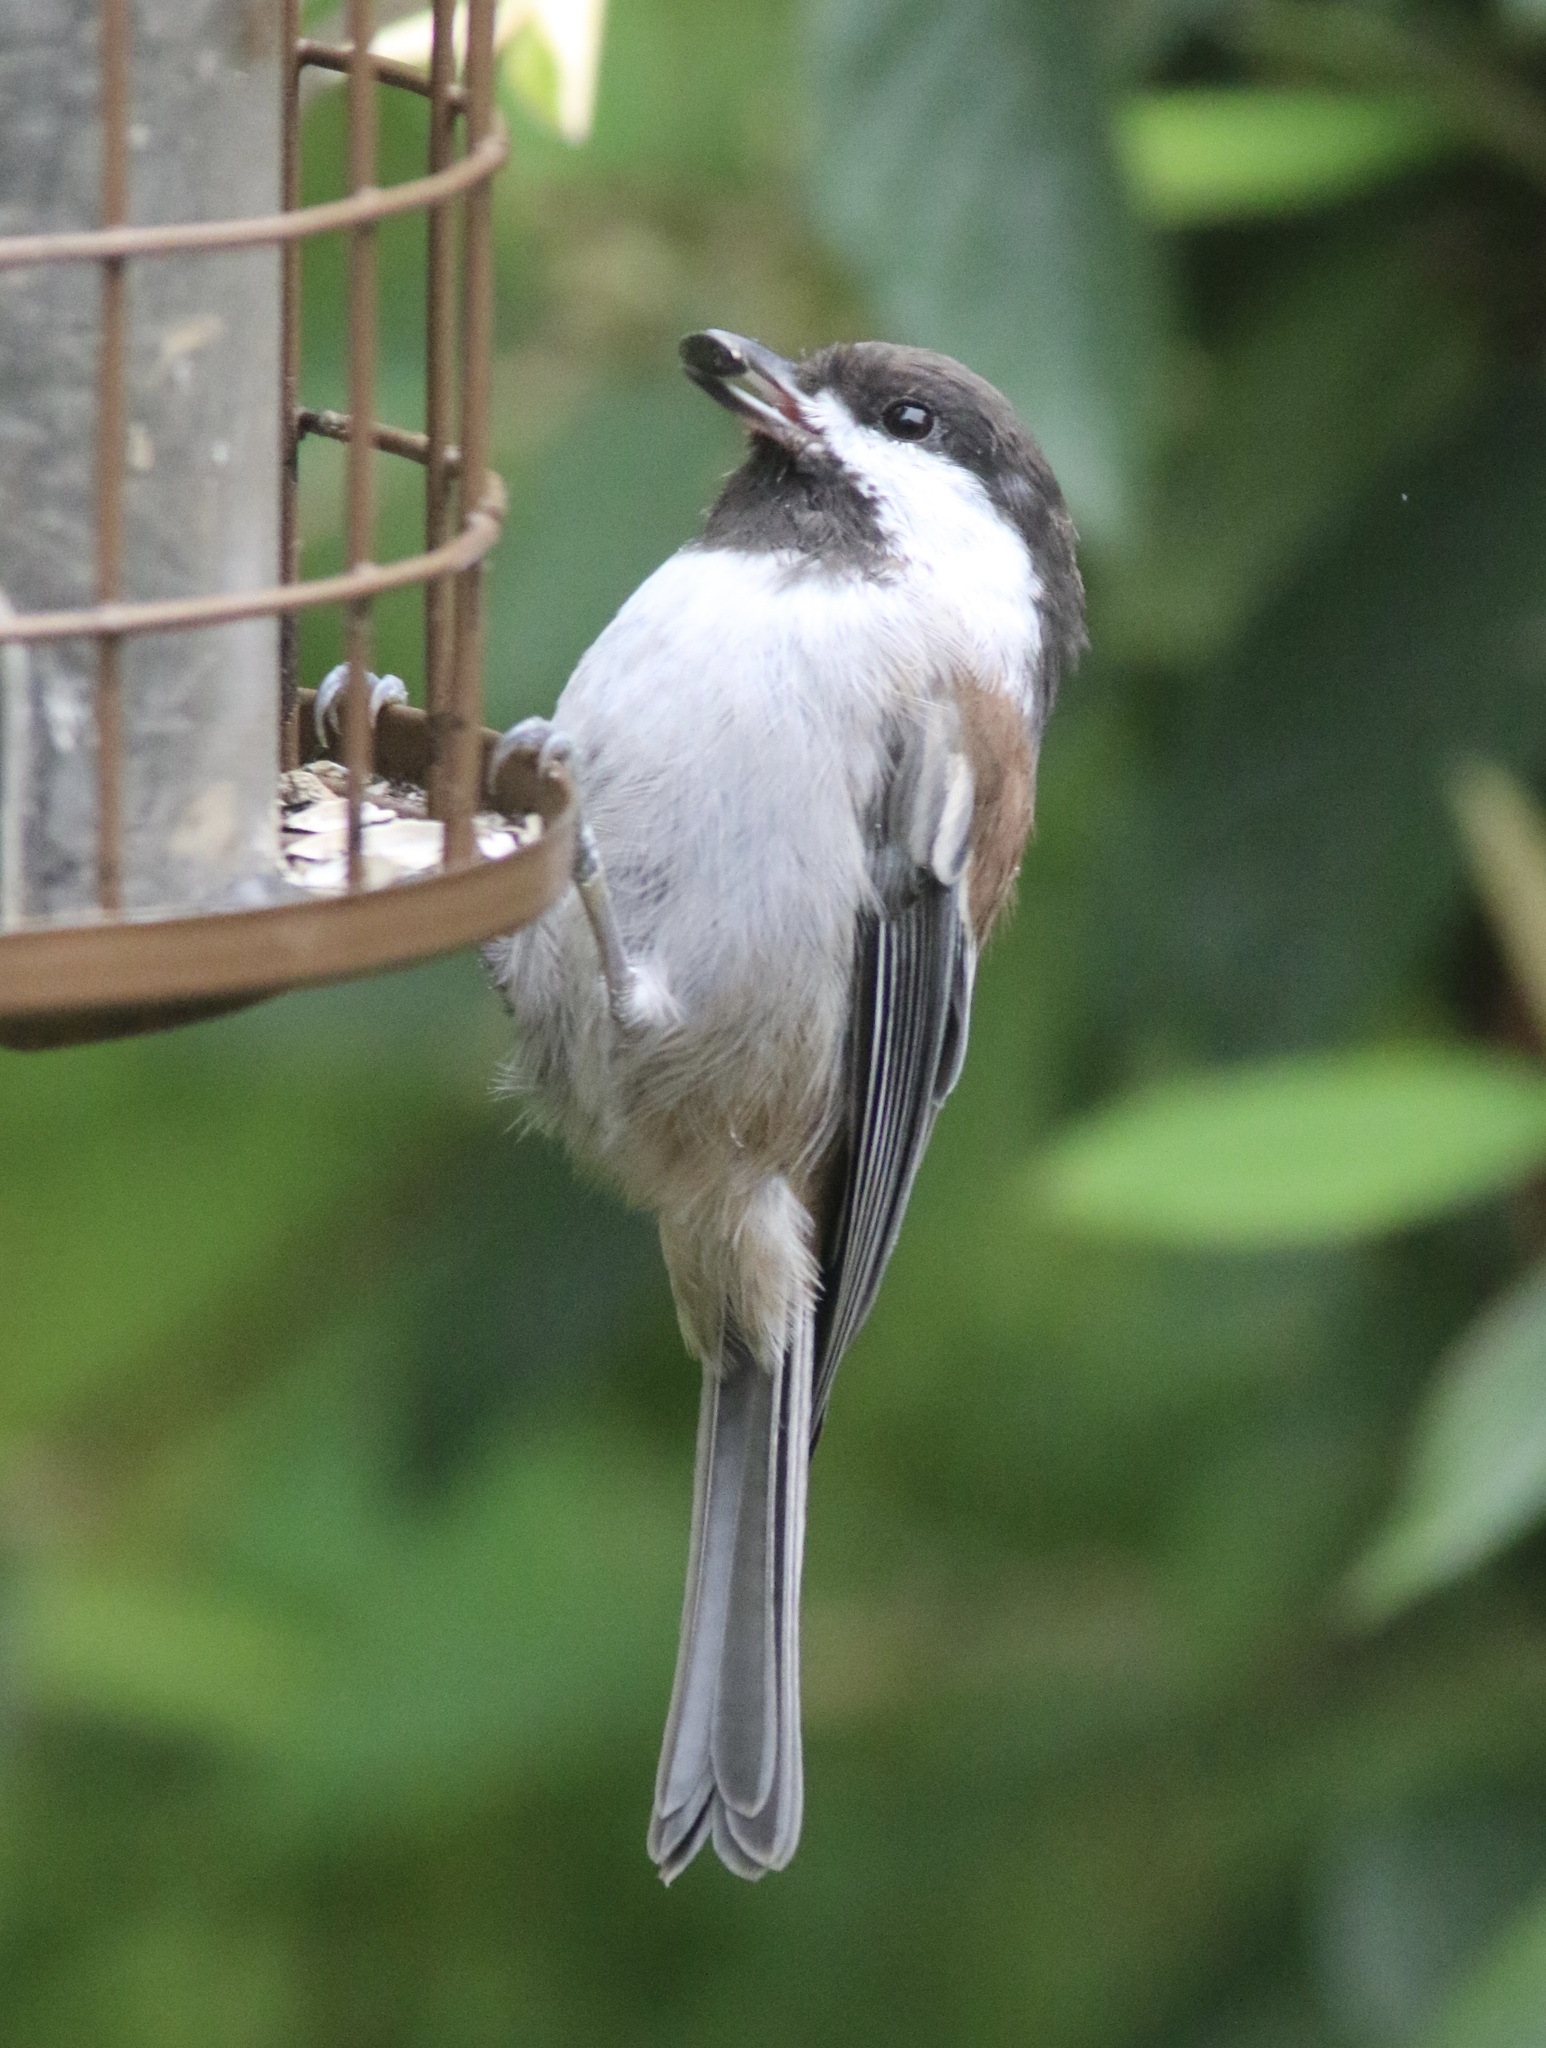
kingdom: Animalia
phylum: Chordata
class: Aves
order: Passeriformes
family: Paridae
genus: Poecile
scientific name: Poecile rufescens
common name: Chestnut-backed chickadee
